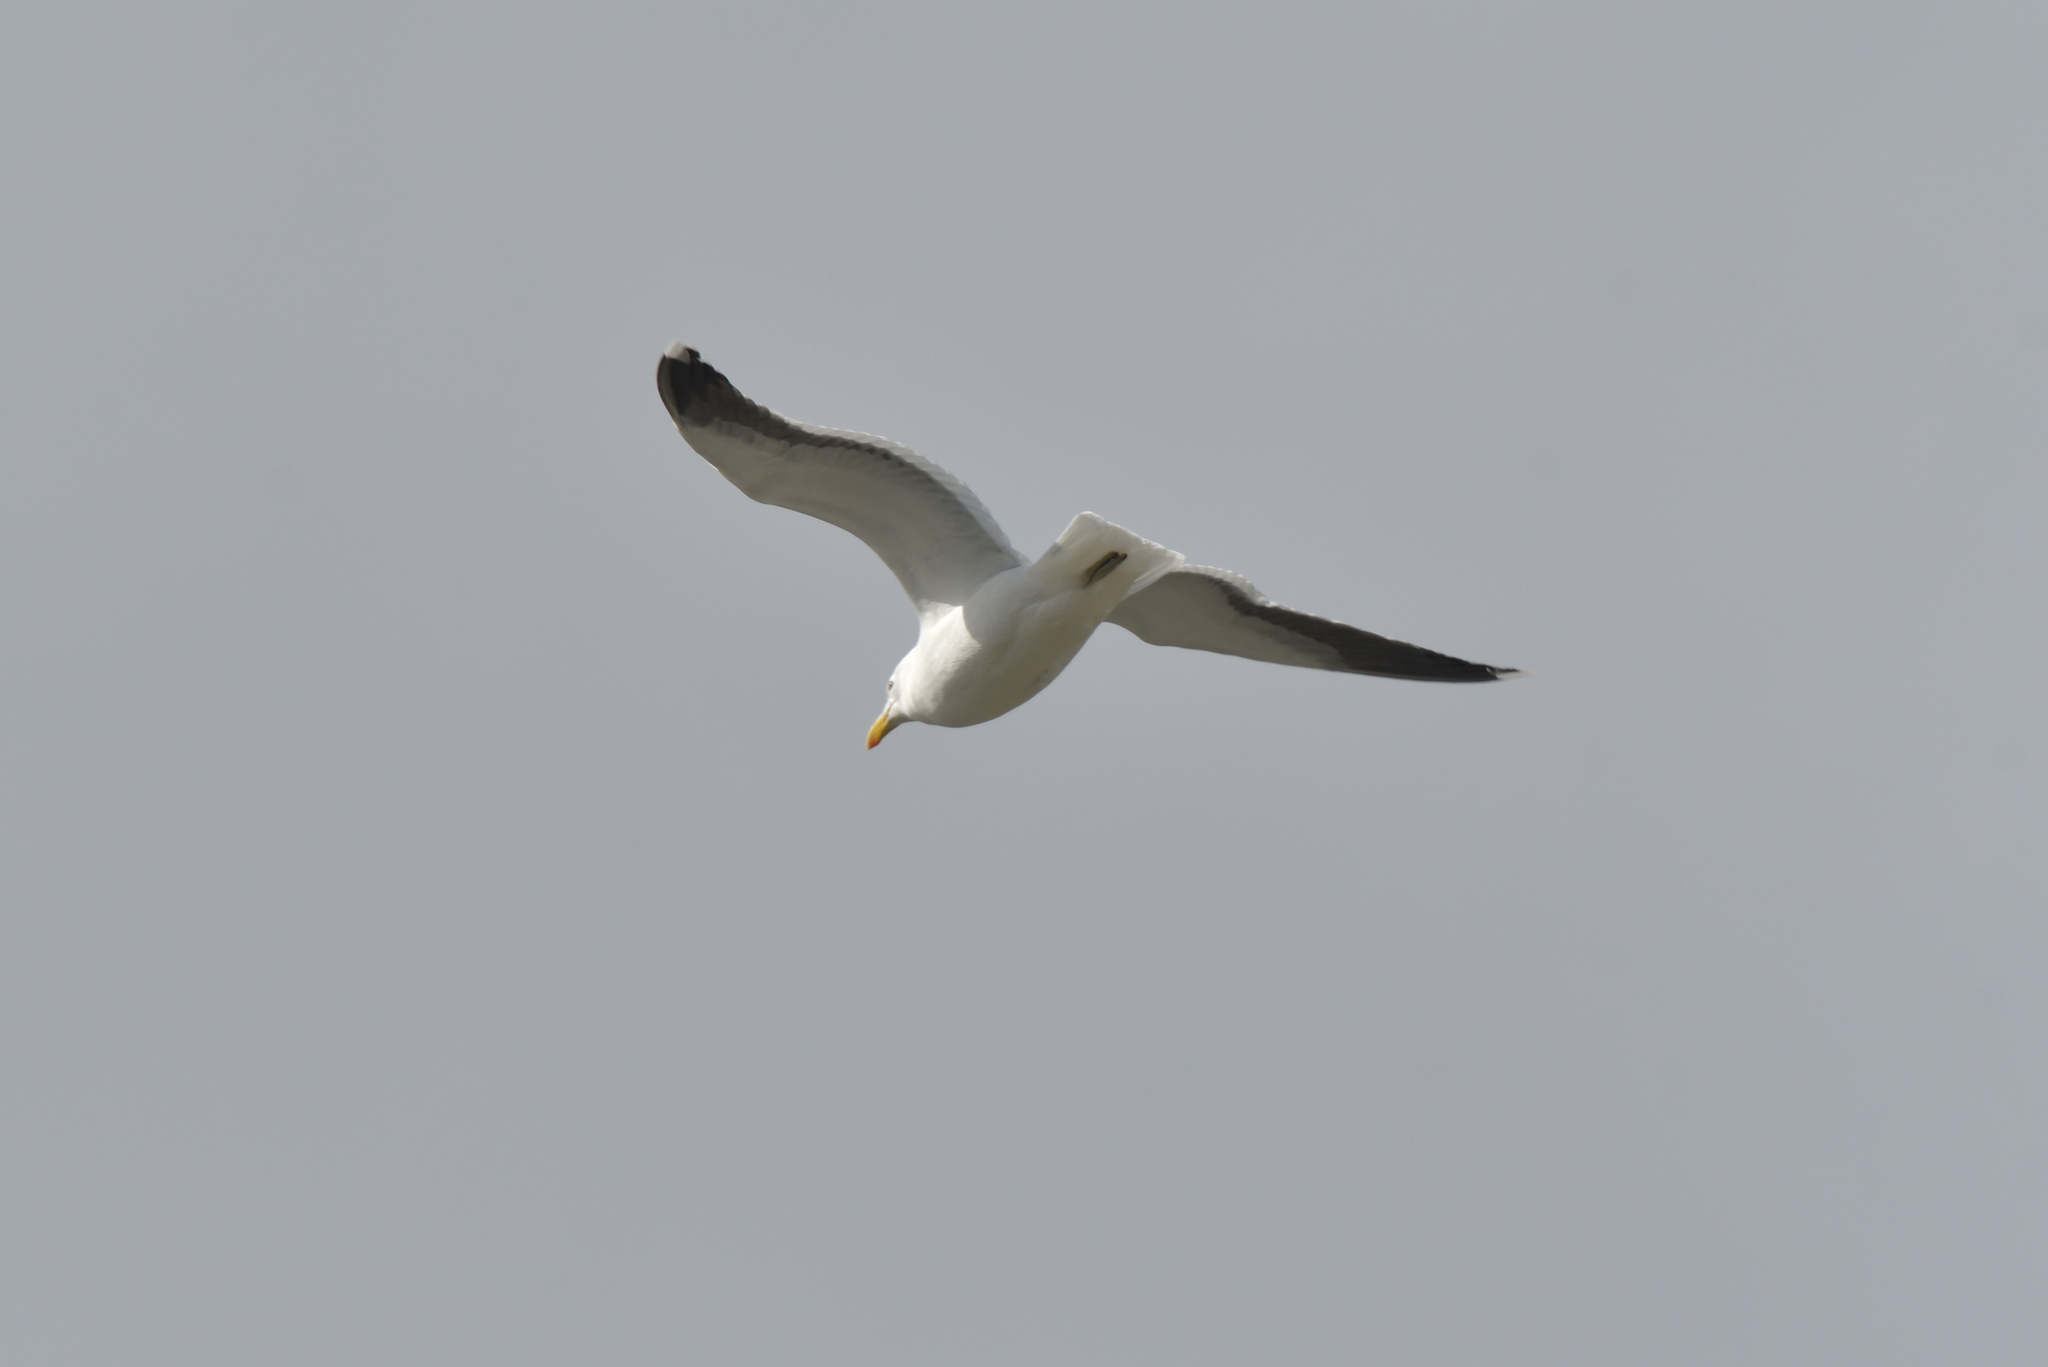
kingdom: Animalia
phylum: Chordata
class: Aves
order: Charadriiformes
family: Laridae
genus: Larus
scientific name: Larus dominicanus
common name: Kelp gull
